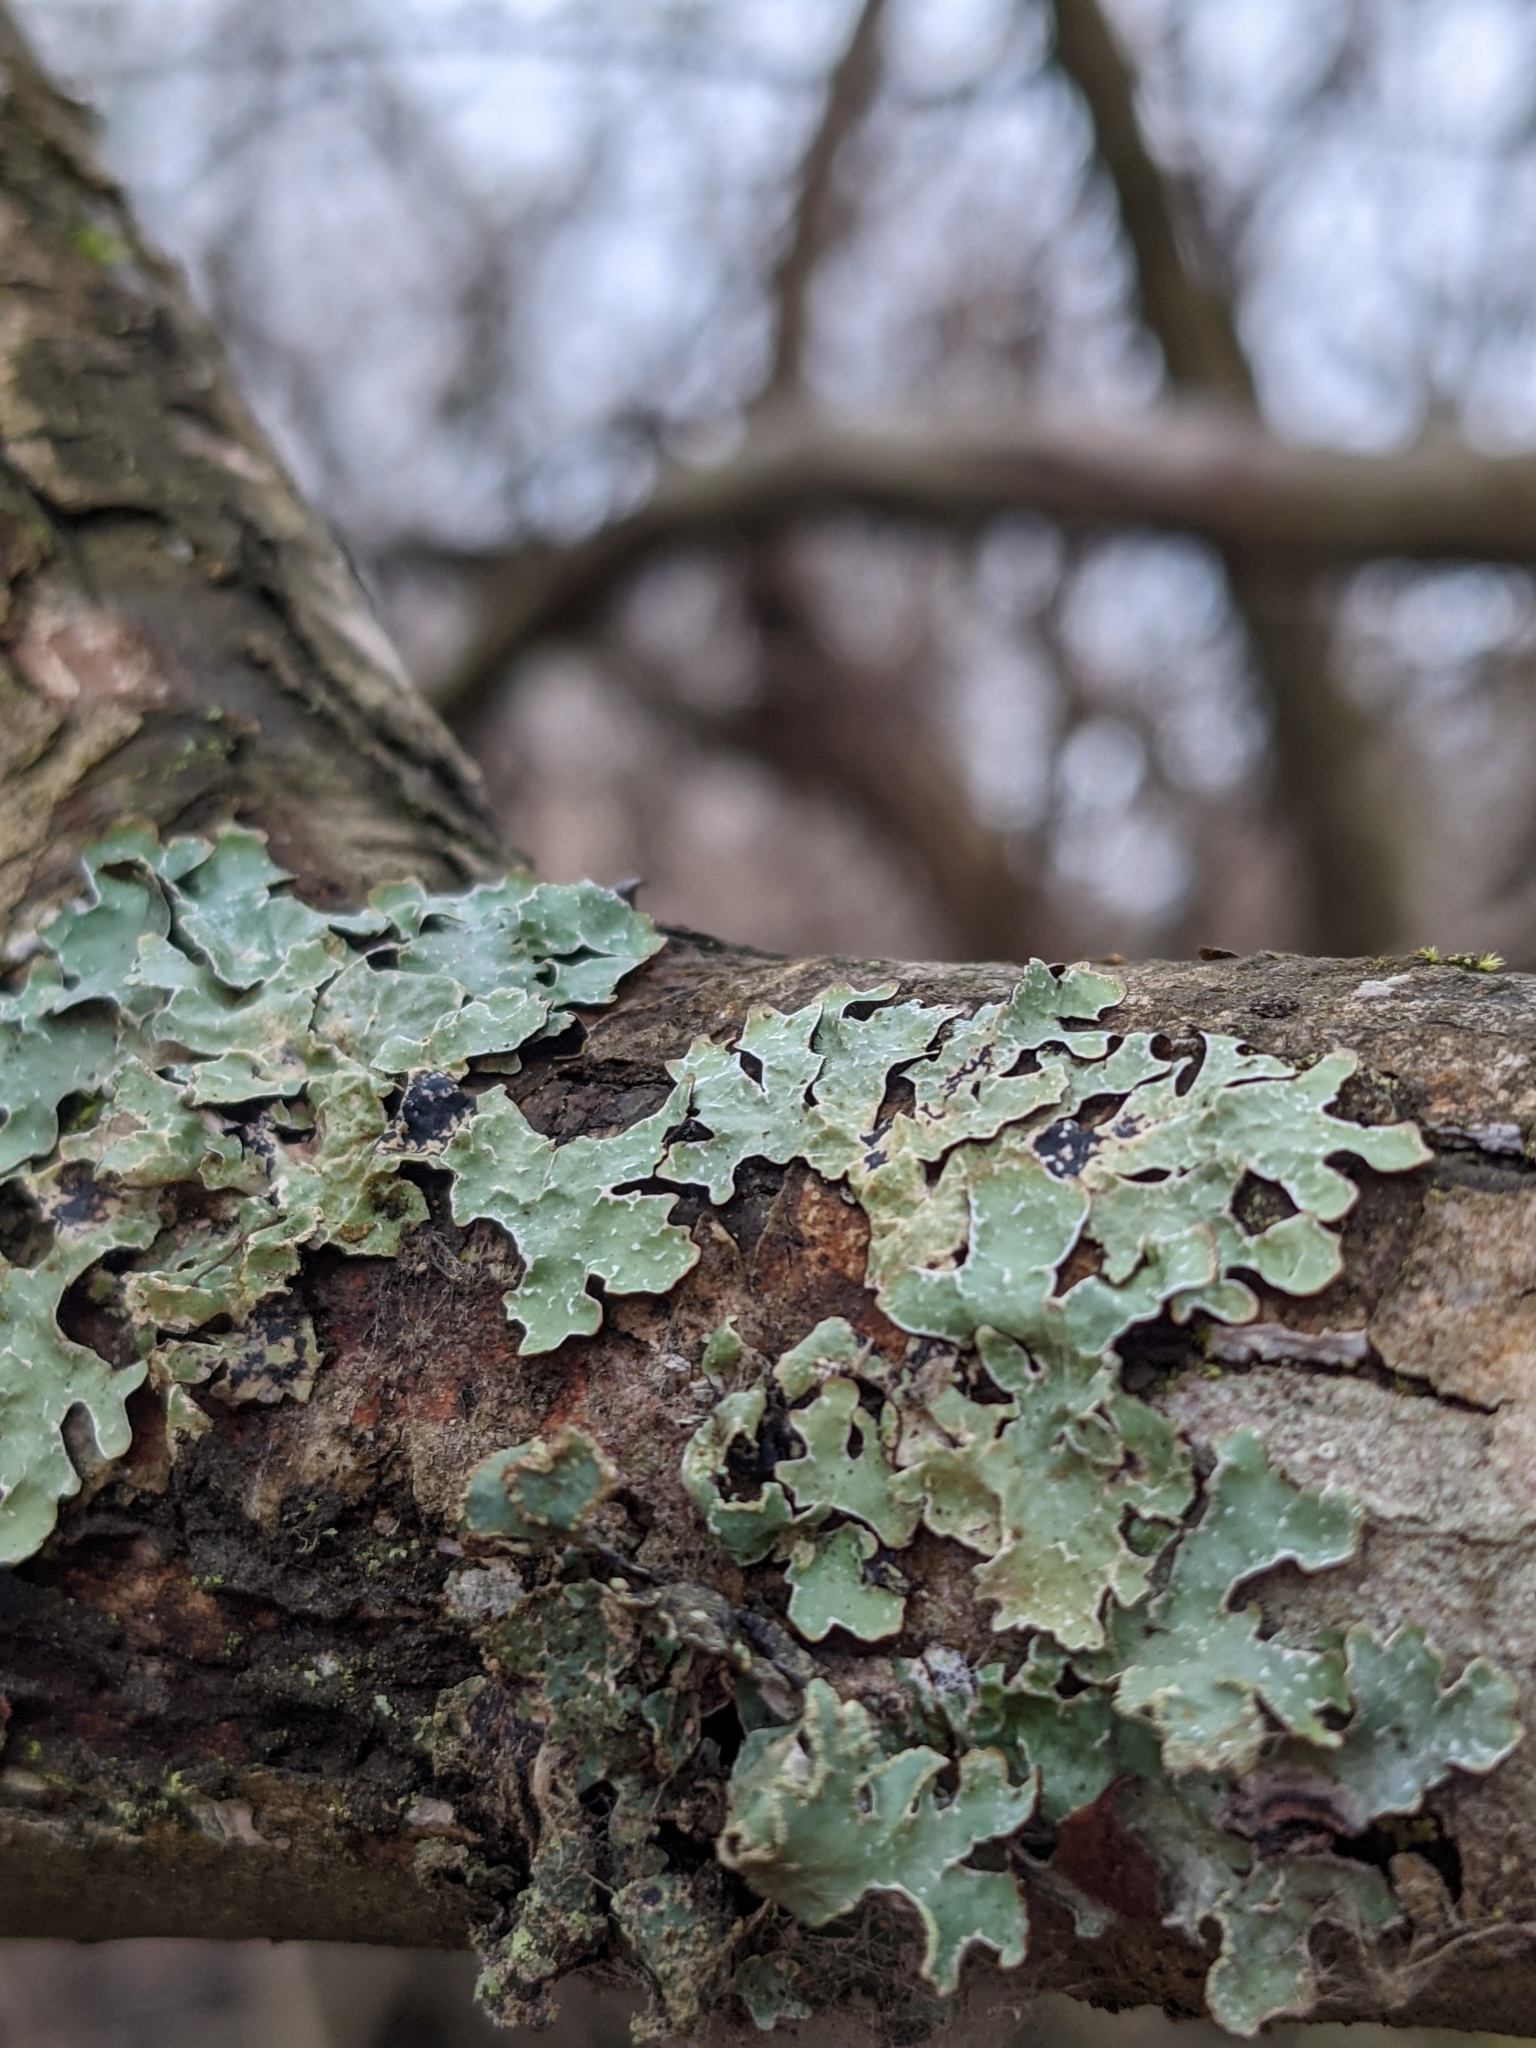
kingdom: Fungi
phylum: Ascomycota
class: Lecanoromycetes
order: Lecanorales
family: Parmeliaceae
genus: Parmelia
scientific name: Parmelia sulcata
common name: Netted shield lichen
